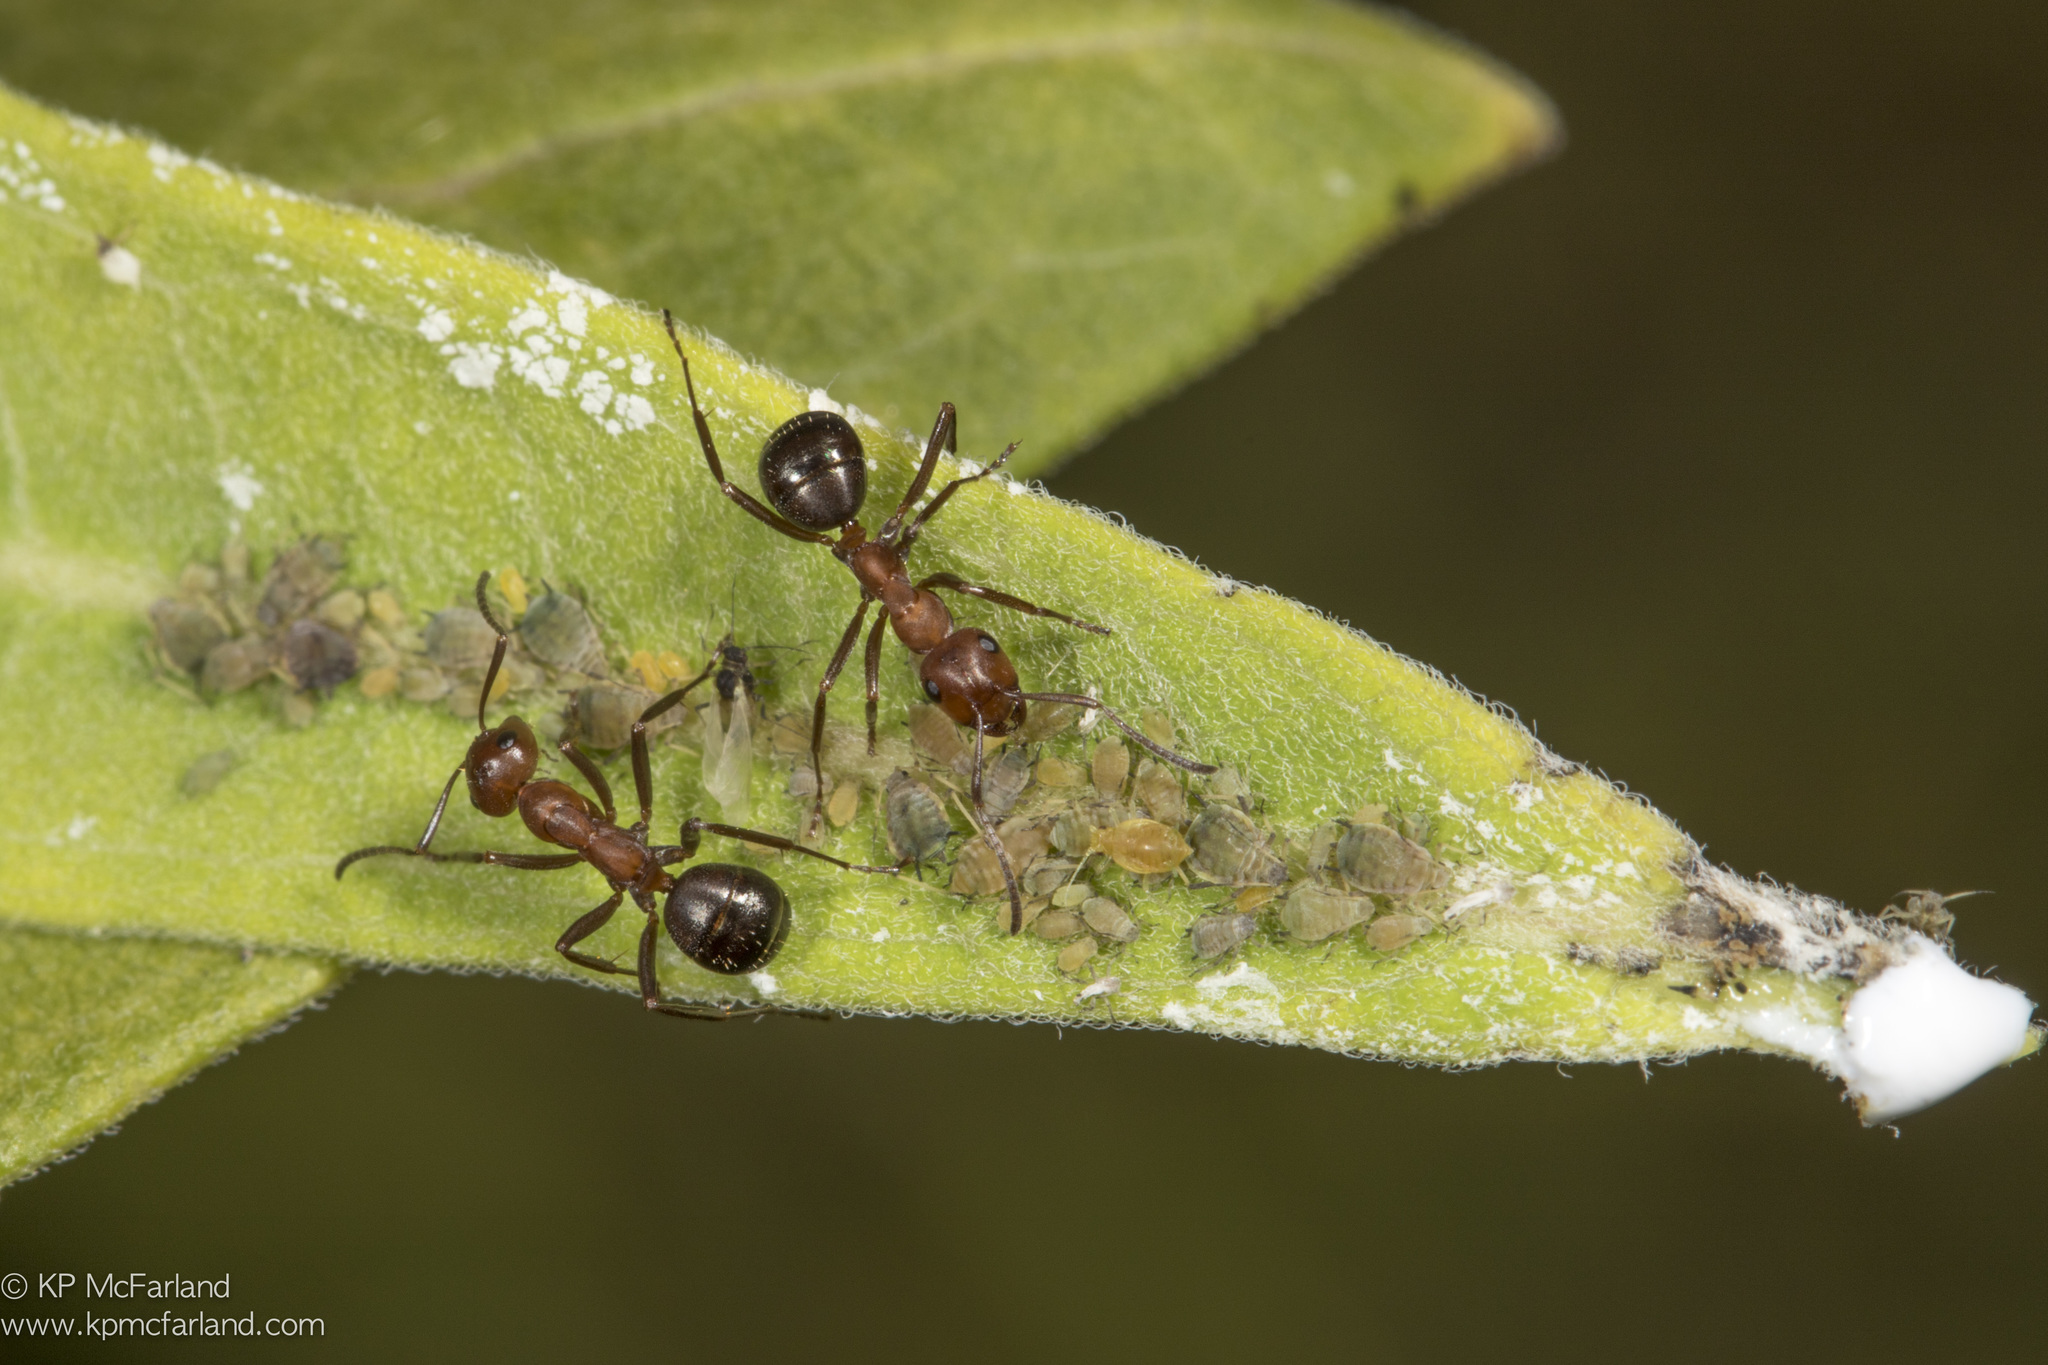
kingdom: Animalia
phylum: Arthropoda
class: Insecta
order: Hymenoptera
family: Formicidae
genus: Formica
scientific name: Formica
